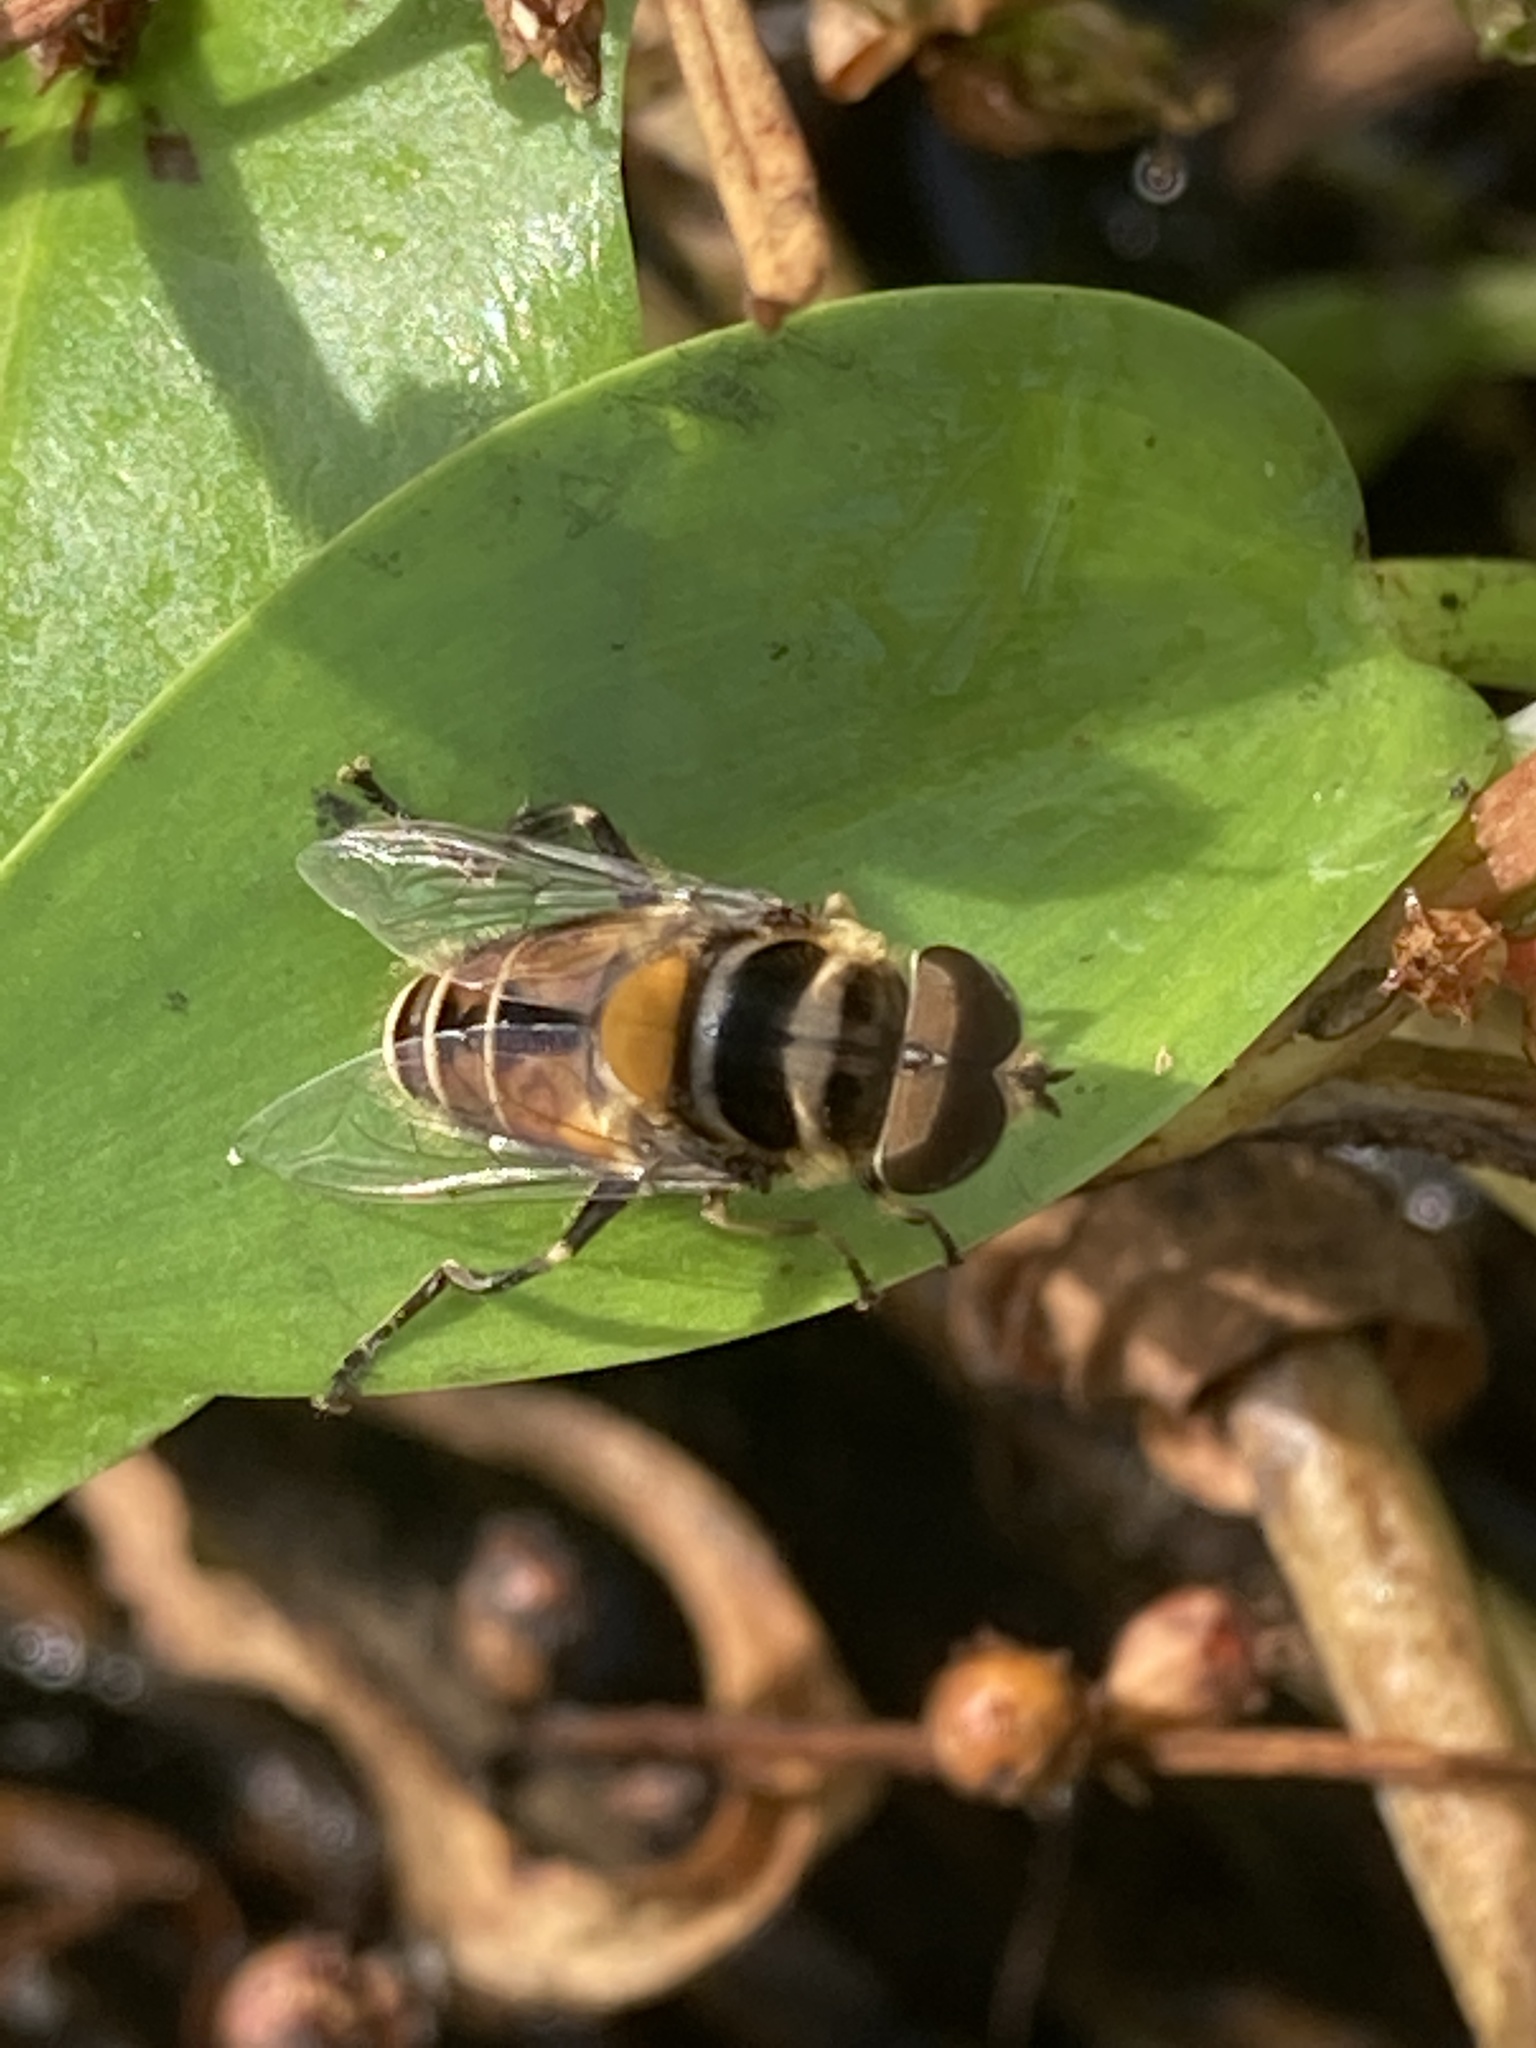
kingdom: Animalia
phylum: Arthropoda
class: Insecta
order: Diptera
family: Syrphidae
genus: Palpada
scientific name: Palpada agrorum
